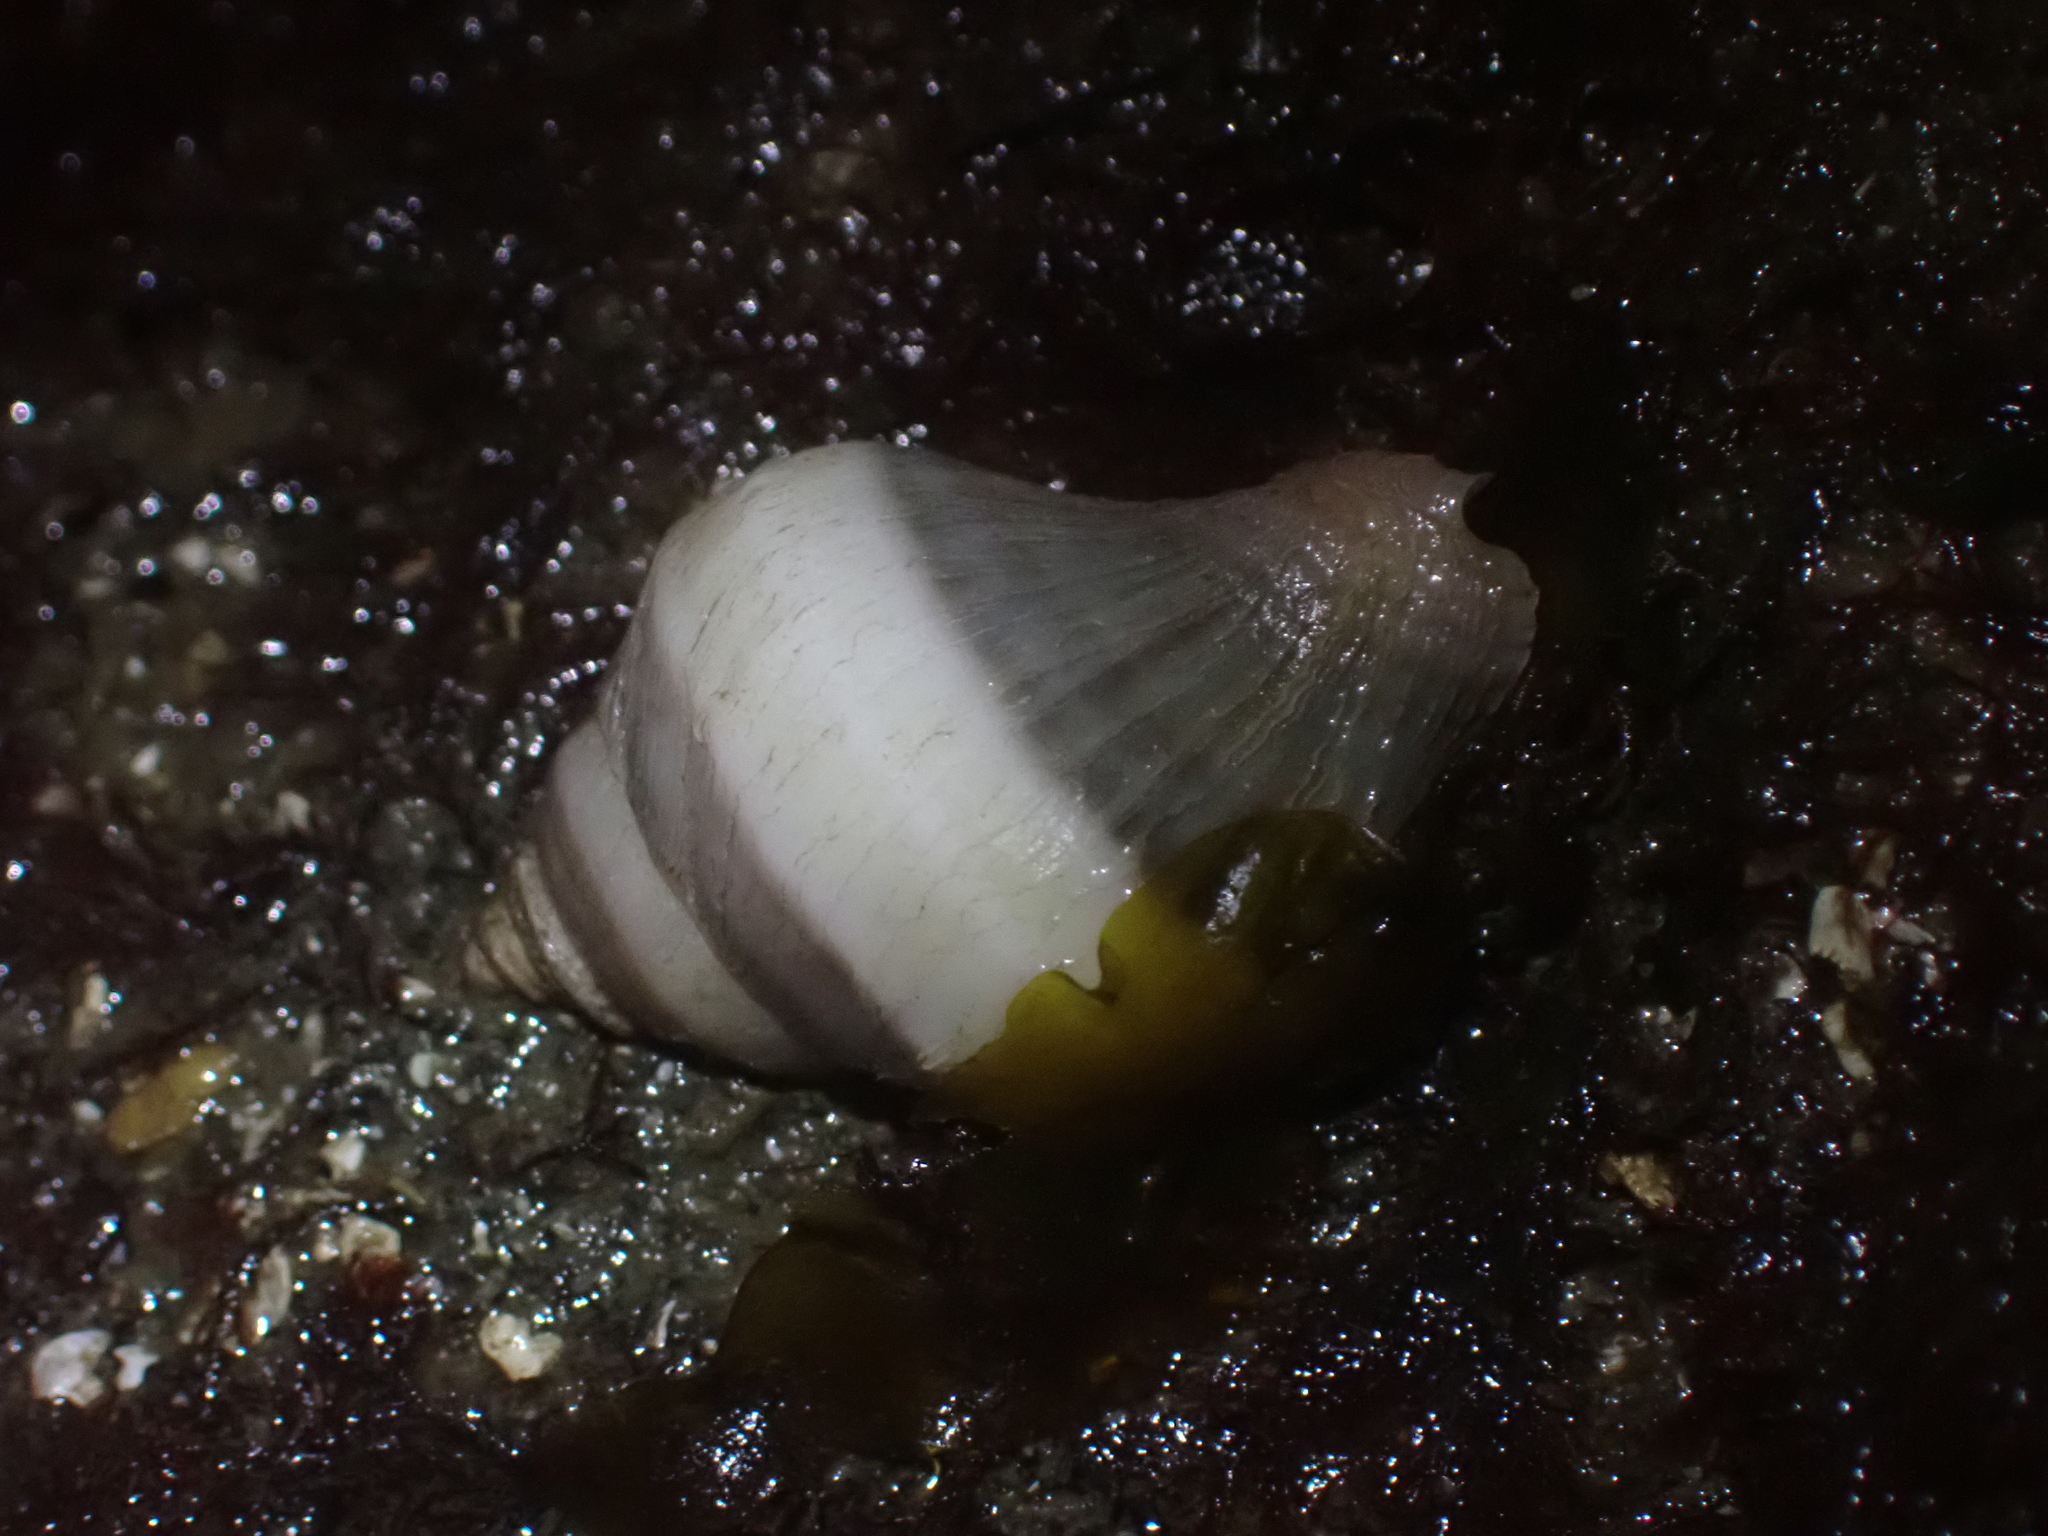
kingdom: Animalia
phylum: Mollusca
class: Gastropoda
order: Neogastropoda
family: Muricidae
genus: Nucella
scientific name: Nucella lamellosa
